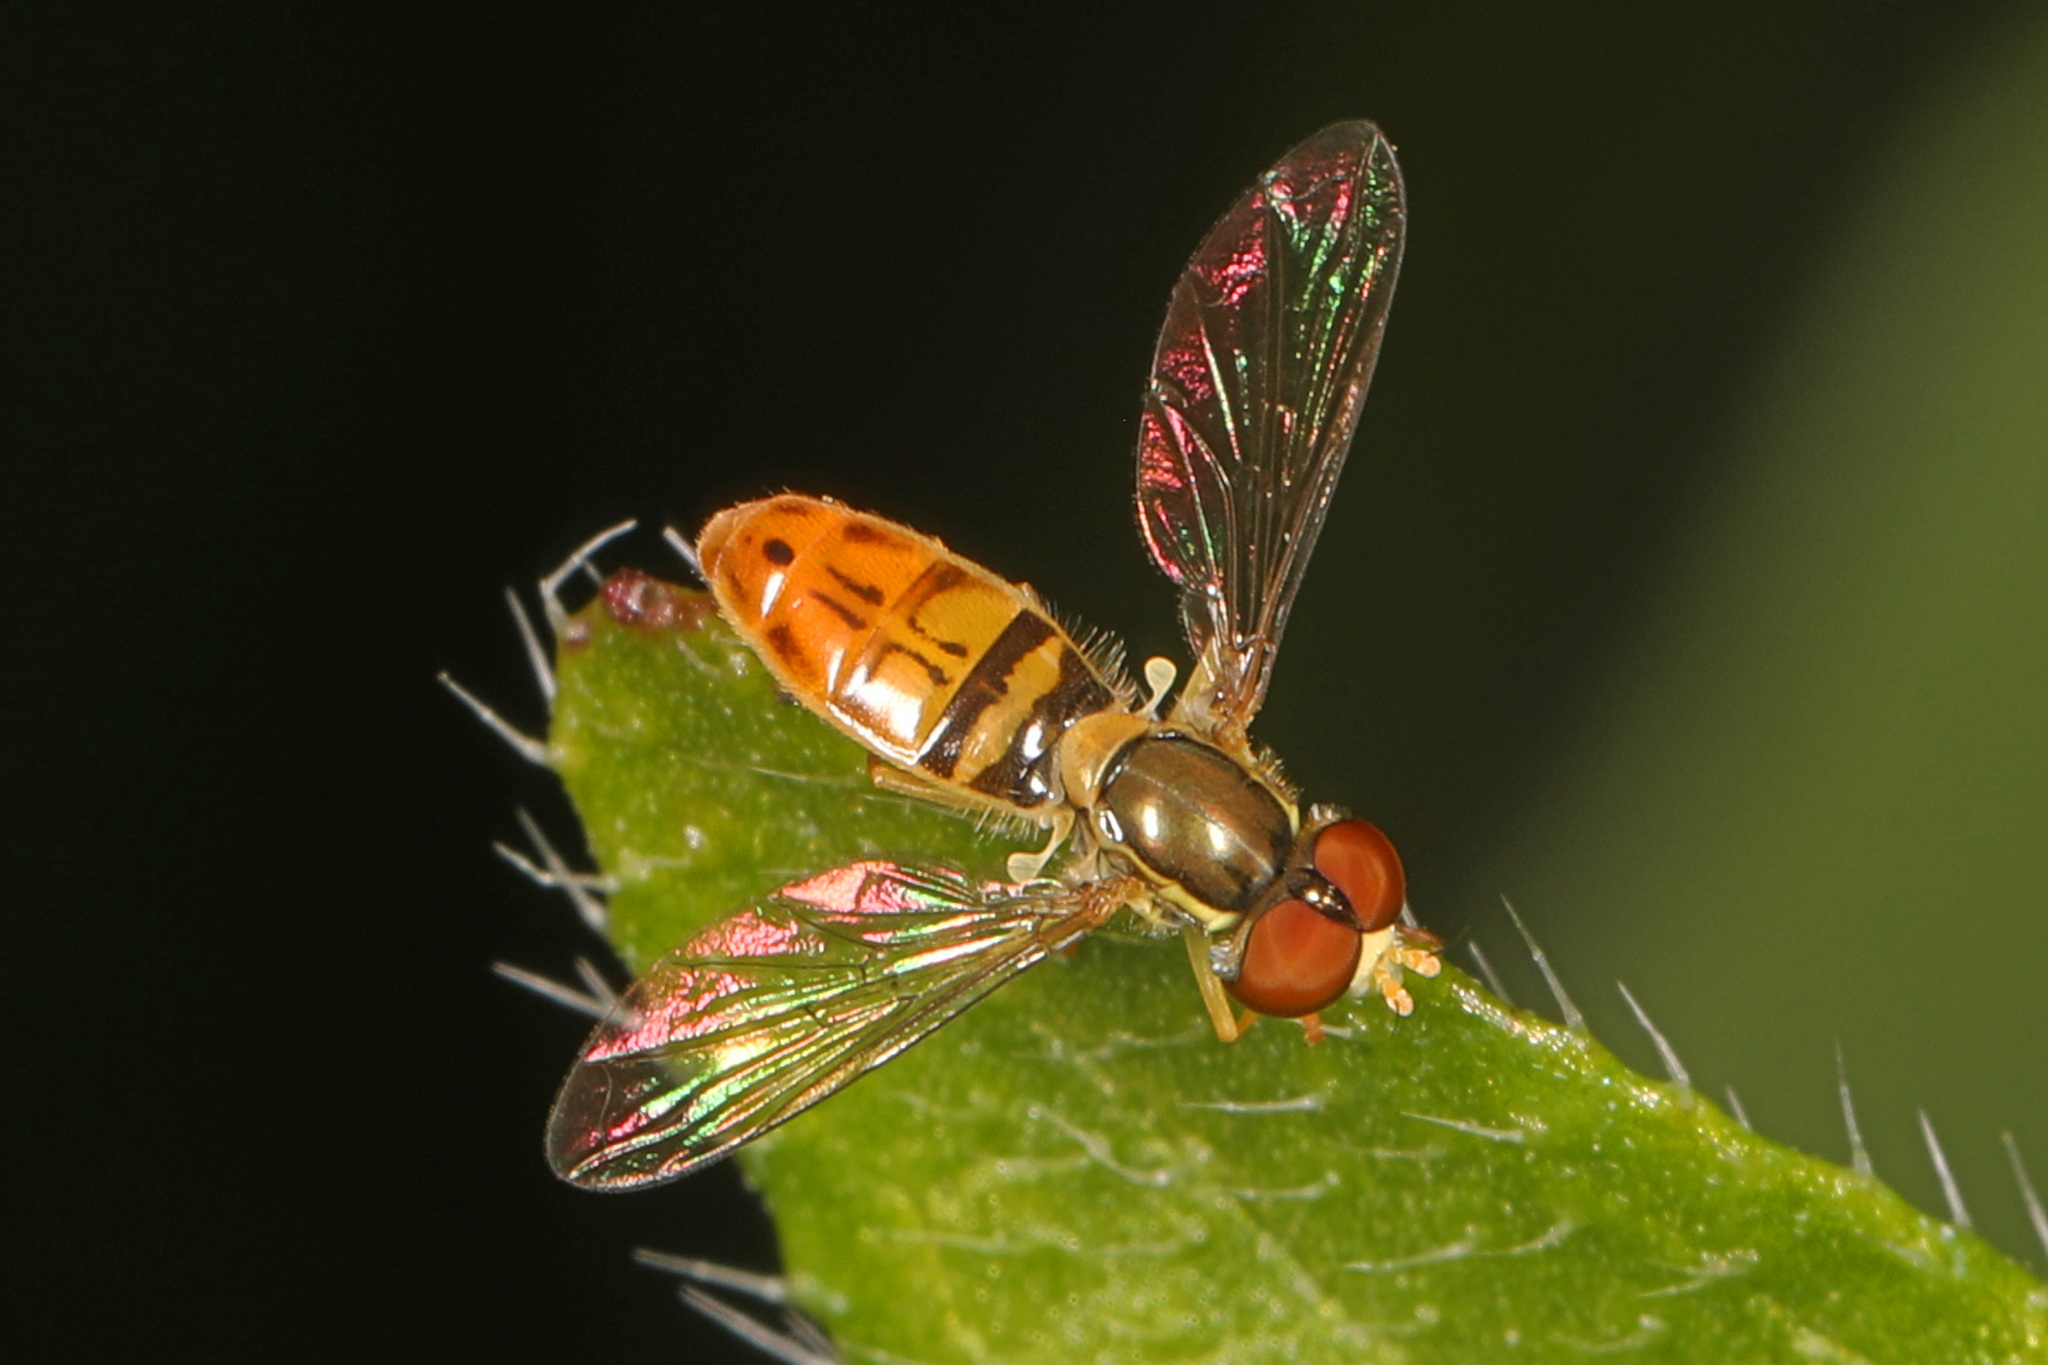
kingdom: Animalia
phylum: Arthropoda
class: Insecta
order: Diptera
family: Syrphidae
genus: Toxomerus
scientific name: Toxomerus marginatus
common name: Syrphid fly
